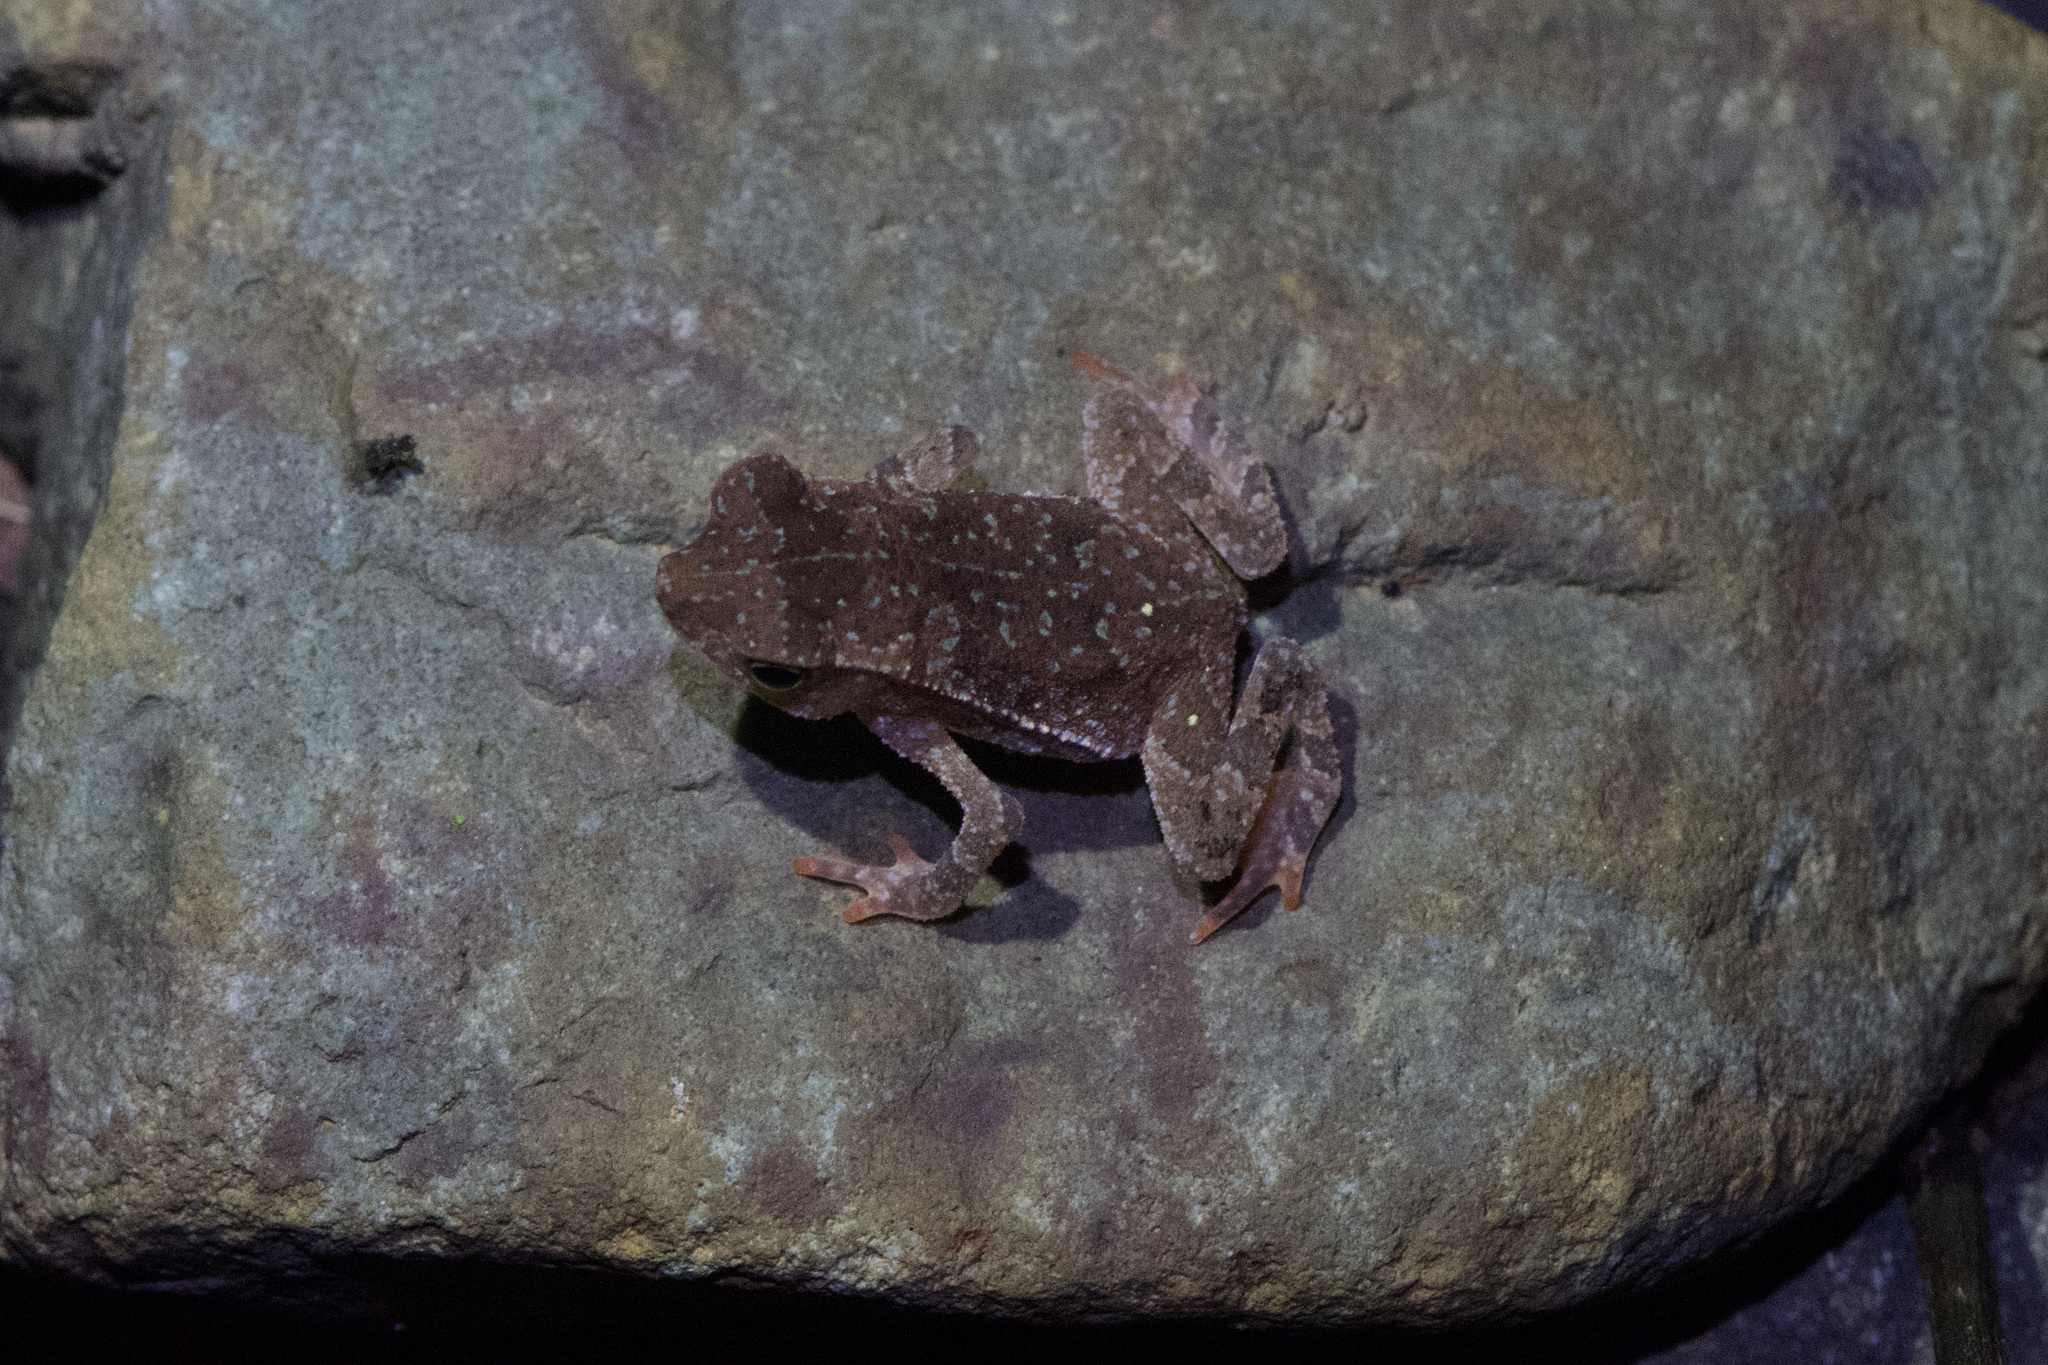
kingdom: Animalia
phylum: Chordata
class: Amphibia
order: Anura
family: Bufonidae
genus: Rhinella
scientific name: Rhinella alata
